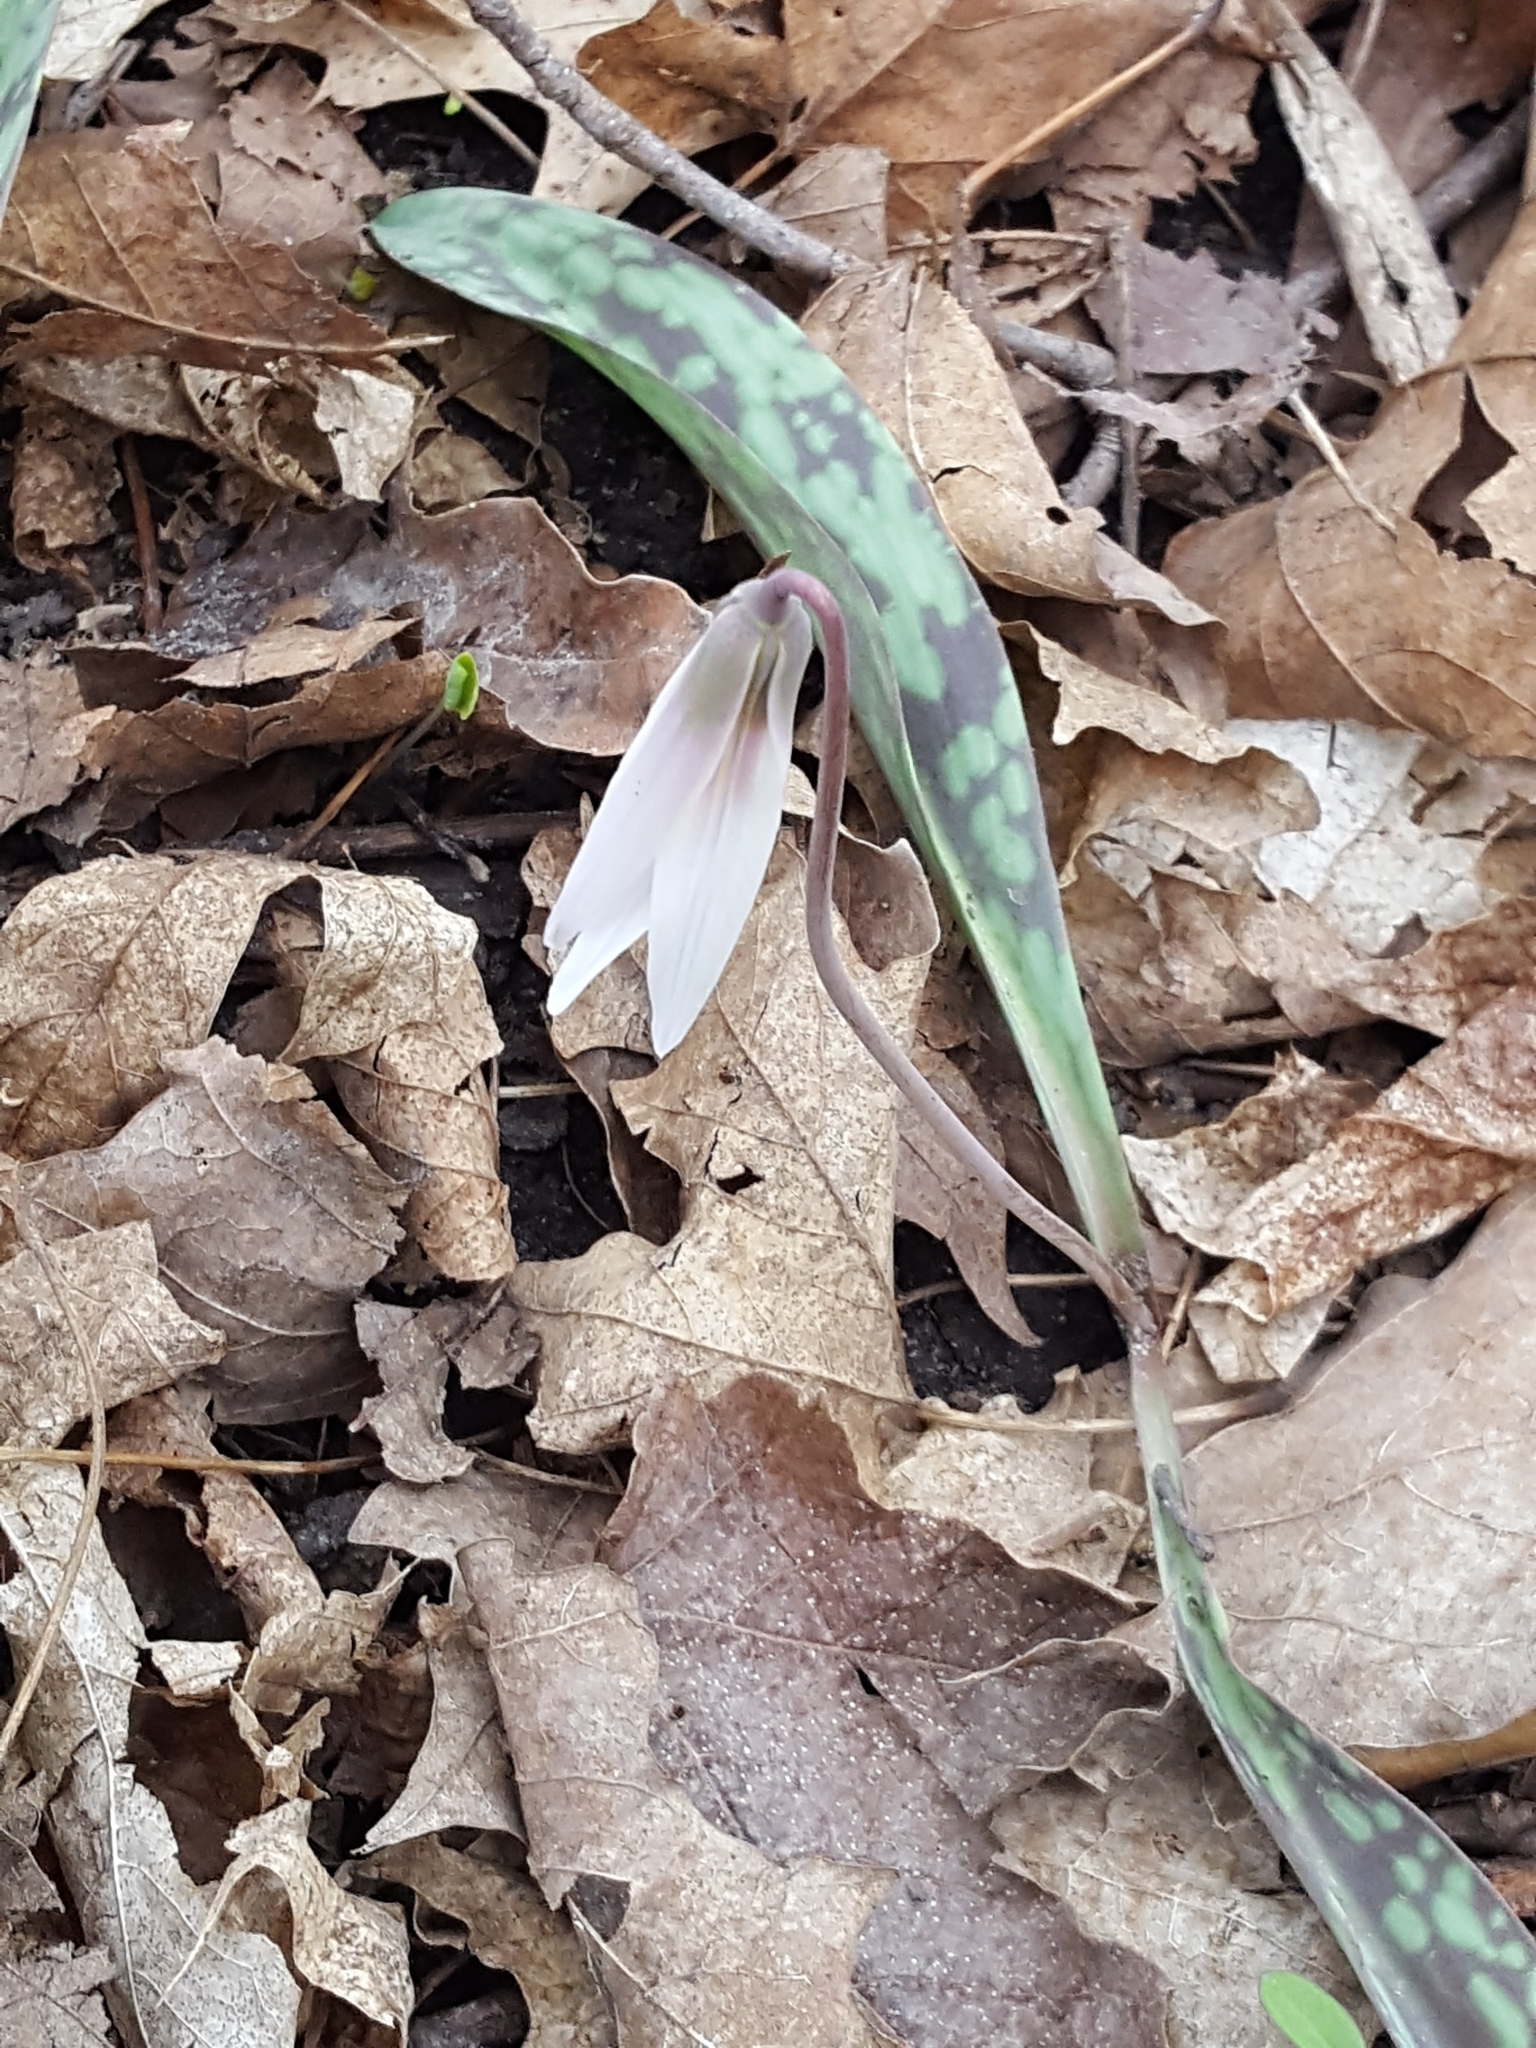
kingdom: Plantae
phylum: Tracheophyta
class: Liliopsida
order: Liliales
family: Liliaceae
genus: Erythronium
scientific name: Erythronium albidum
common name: White trout-lily
